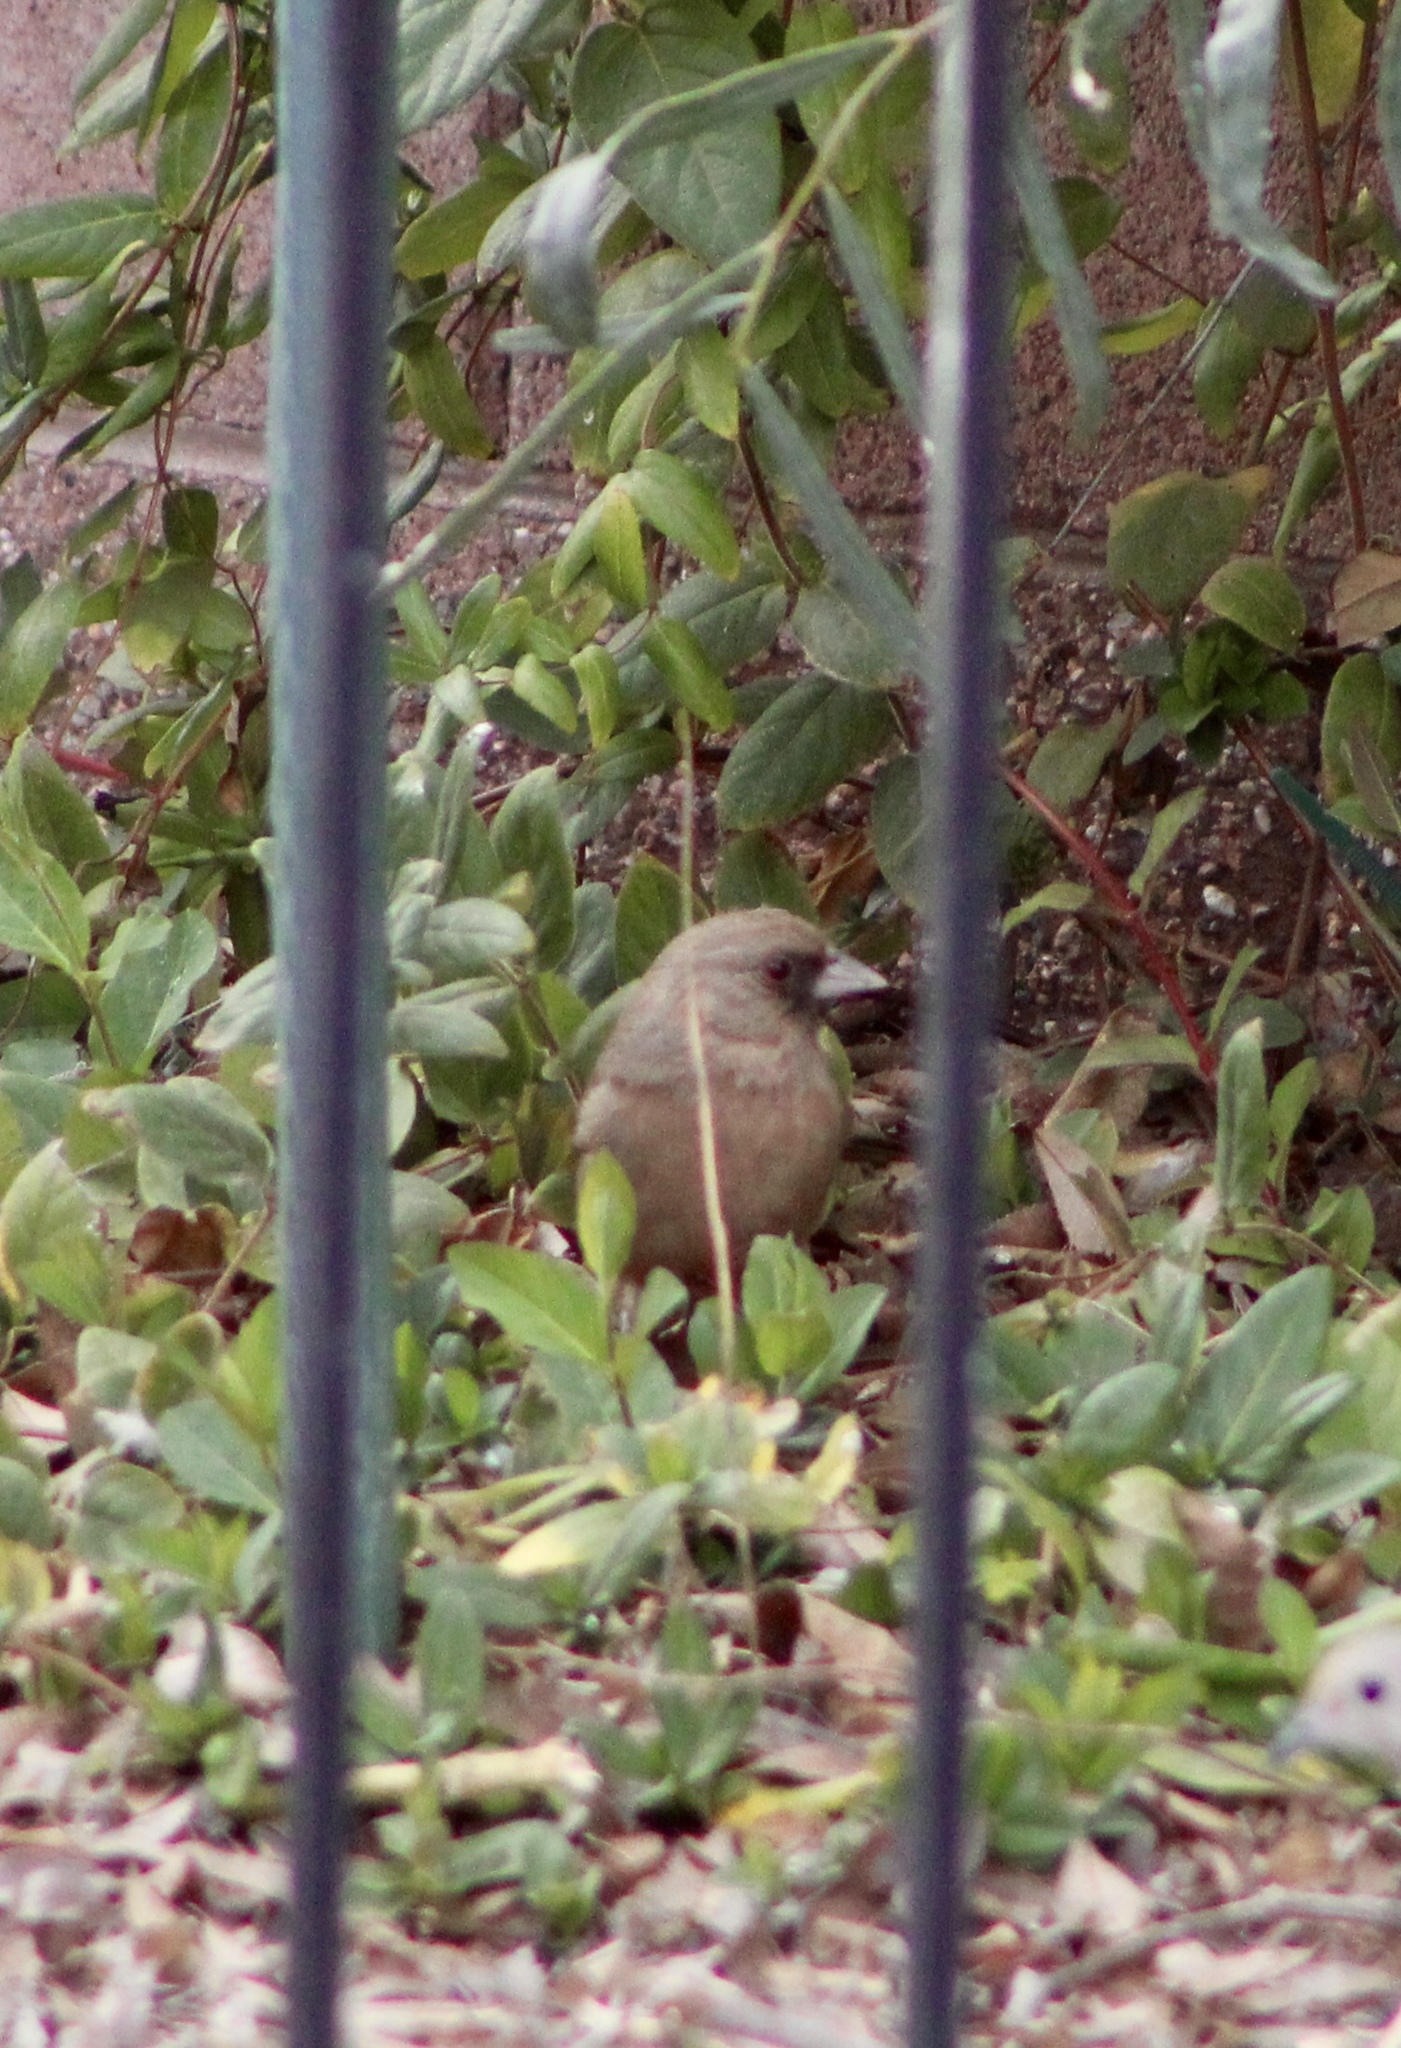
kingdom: Animalia
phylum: Chordata
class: Aves
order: Passeriformes
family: Passerellidae
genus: Melozone
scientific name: Melozone aberti
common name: Abert's towhee
